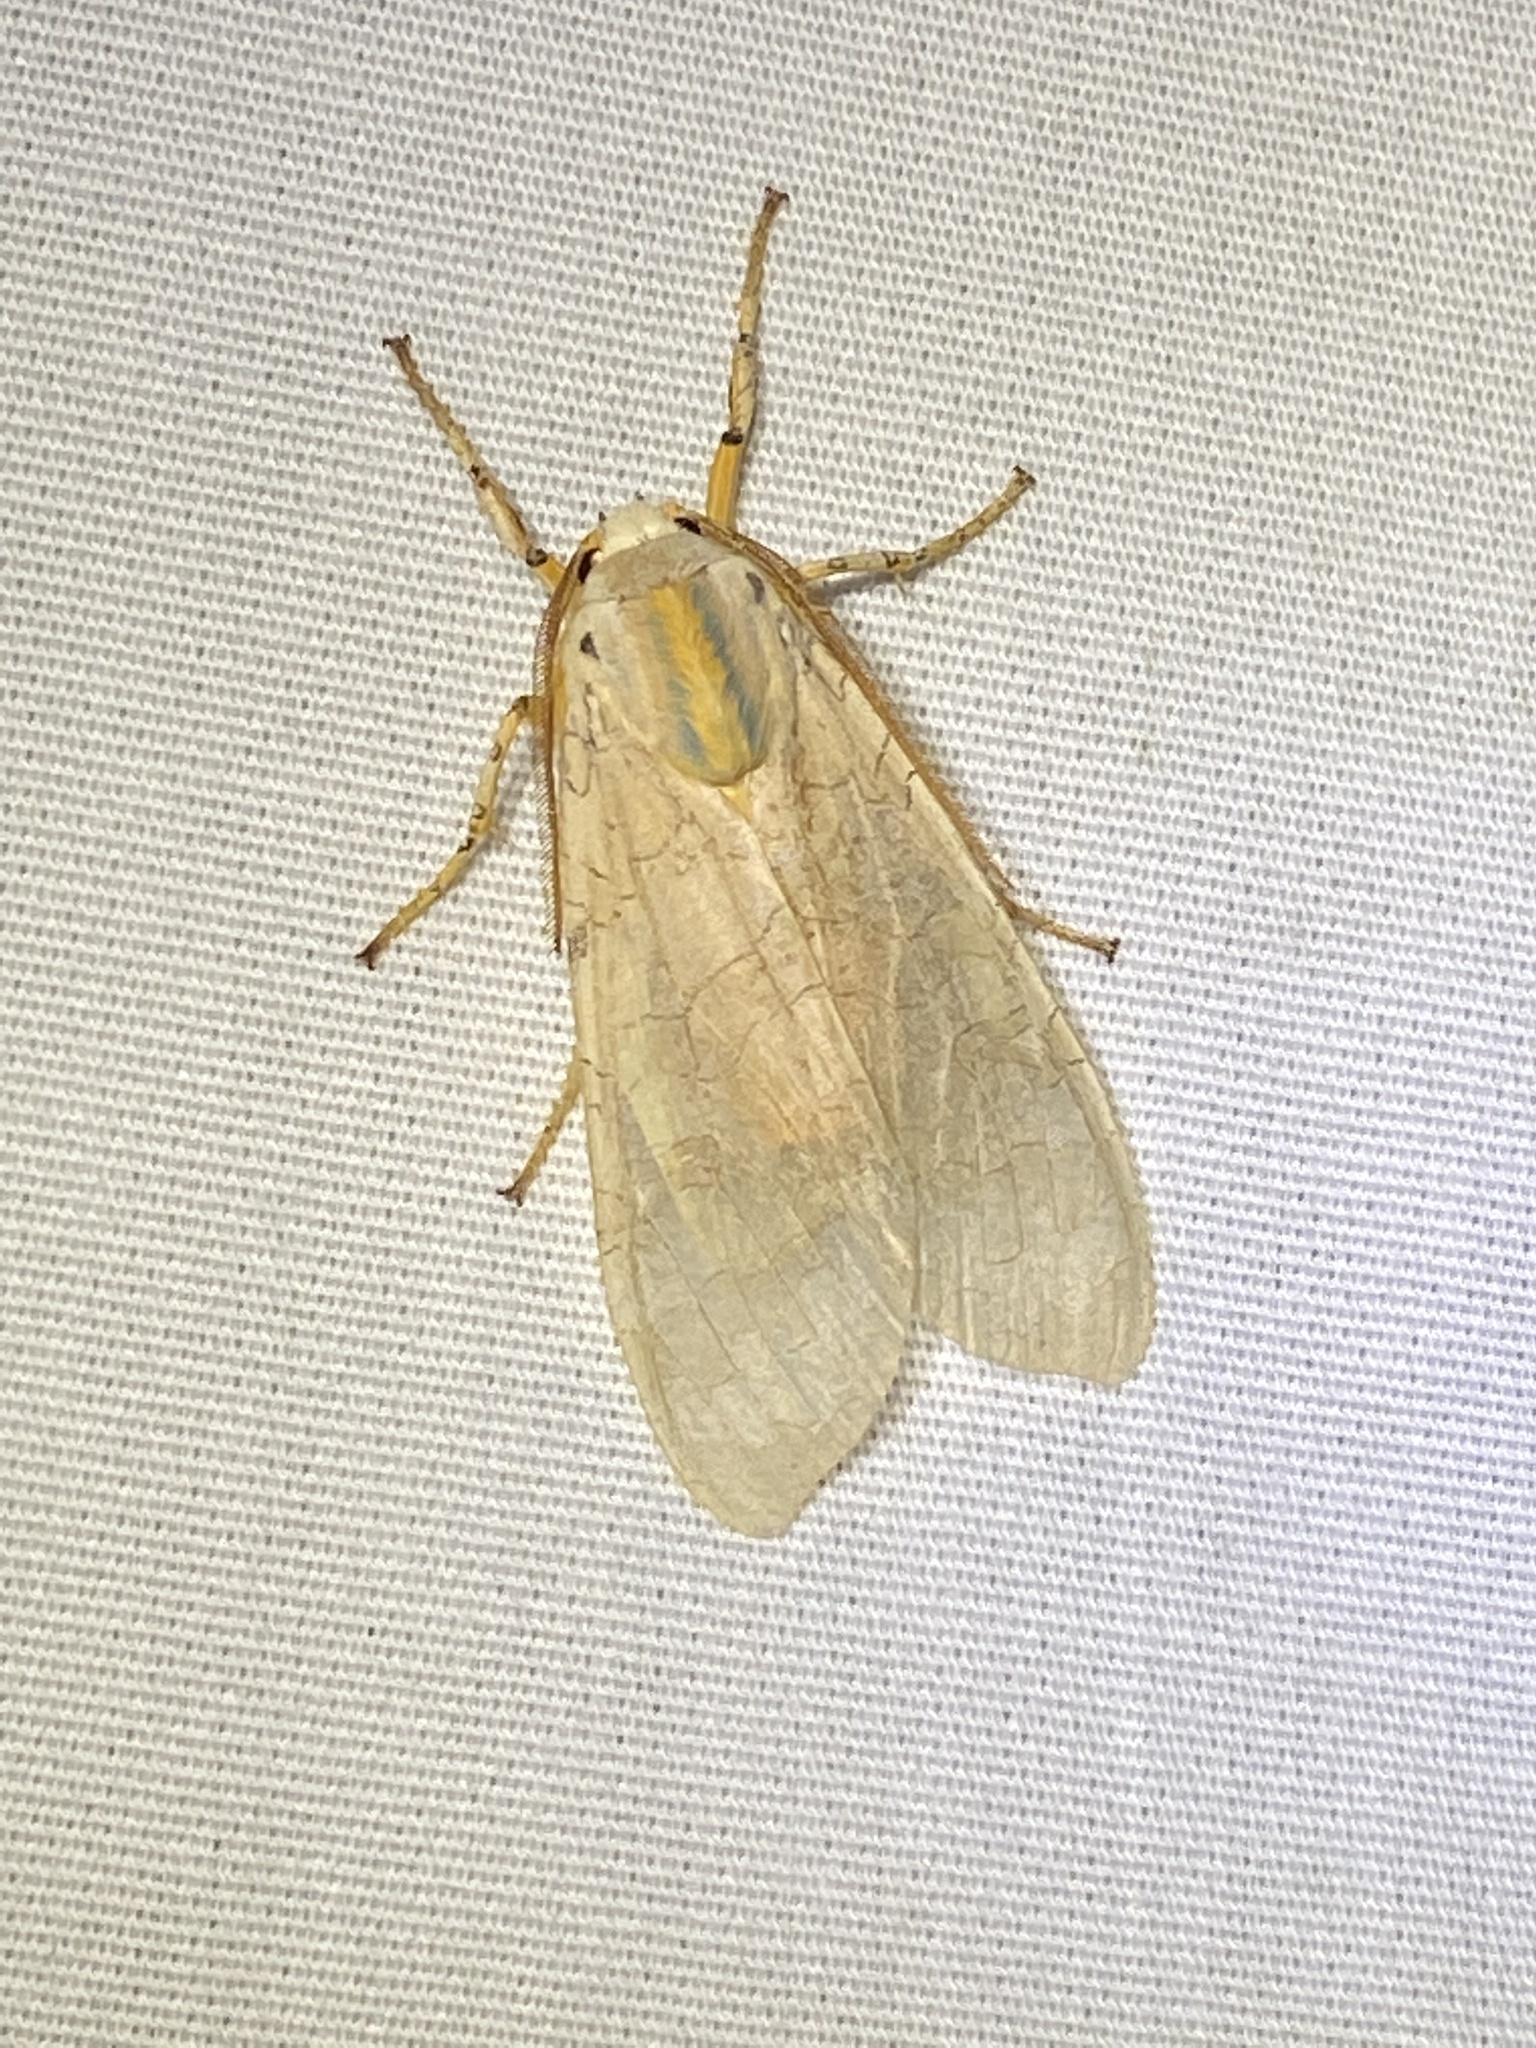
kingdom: Animalia
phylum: Arthropoda
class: Insecta
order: Lepidoptera
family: Erebidae
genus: Halysidota
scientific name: Halysidota
